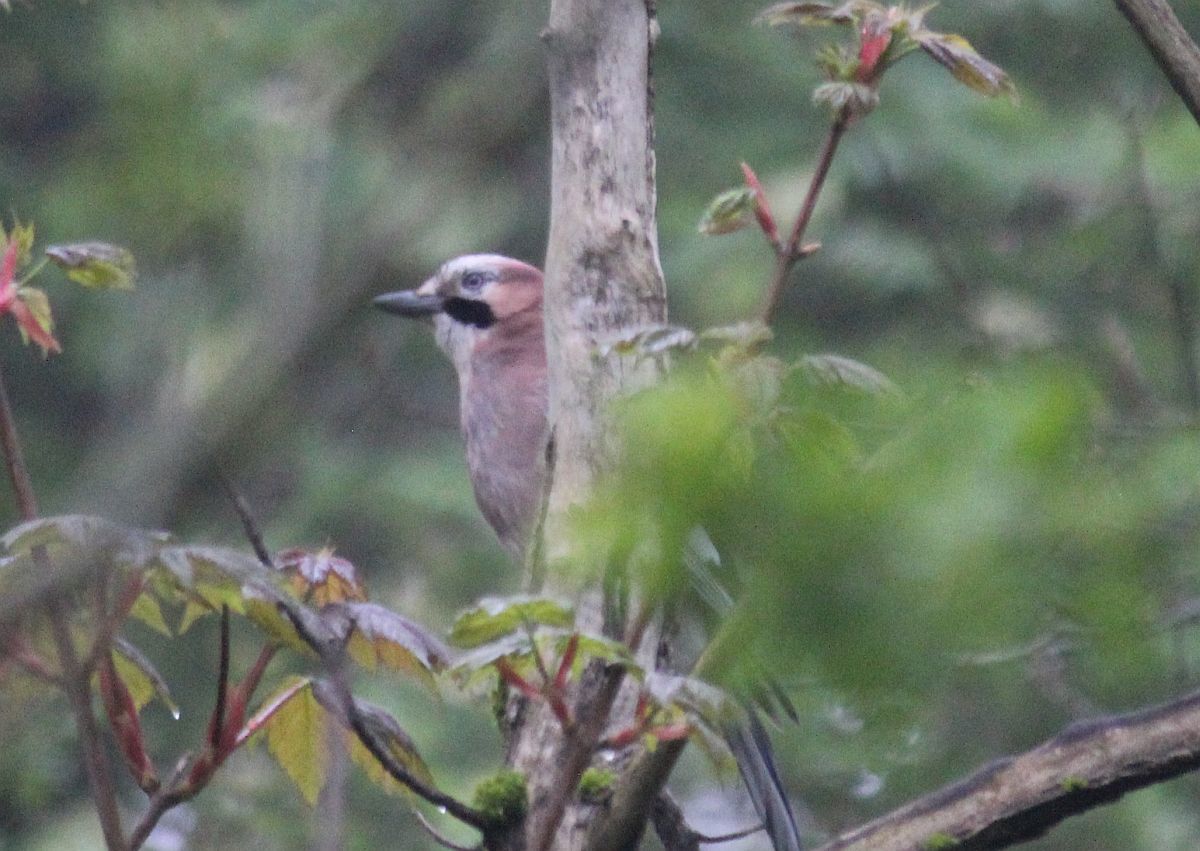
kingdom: Animalia
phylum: Chordata
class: Aves
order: Passeriformes
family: Corvidae
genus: Garrulus
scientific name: Garrulus glandarius
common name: Eurasian jay
